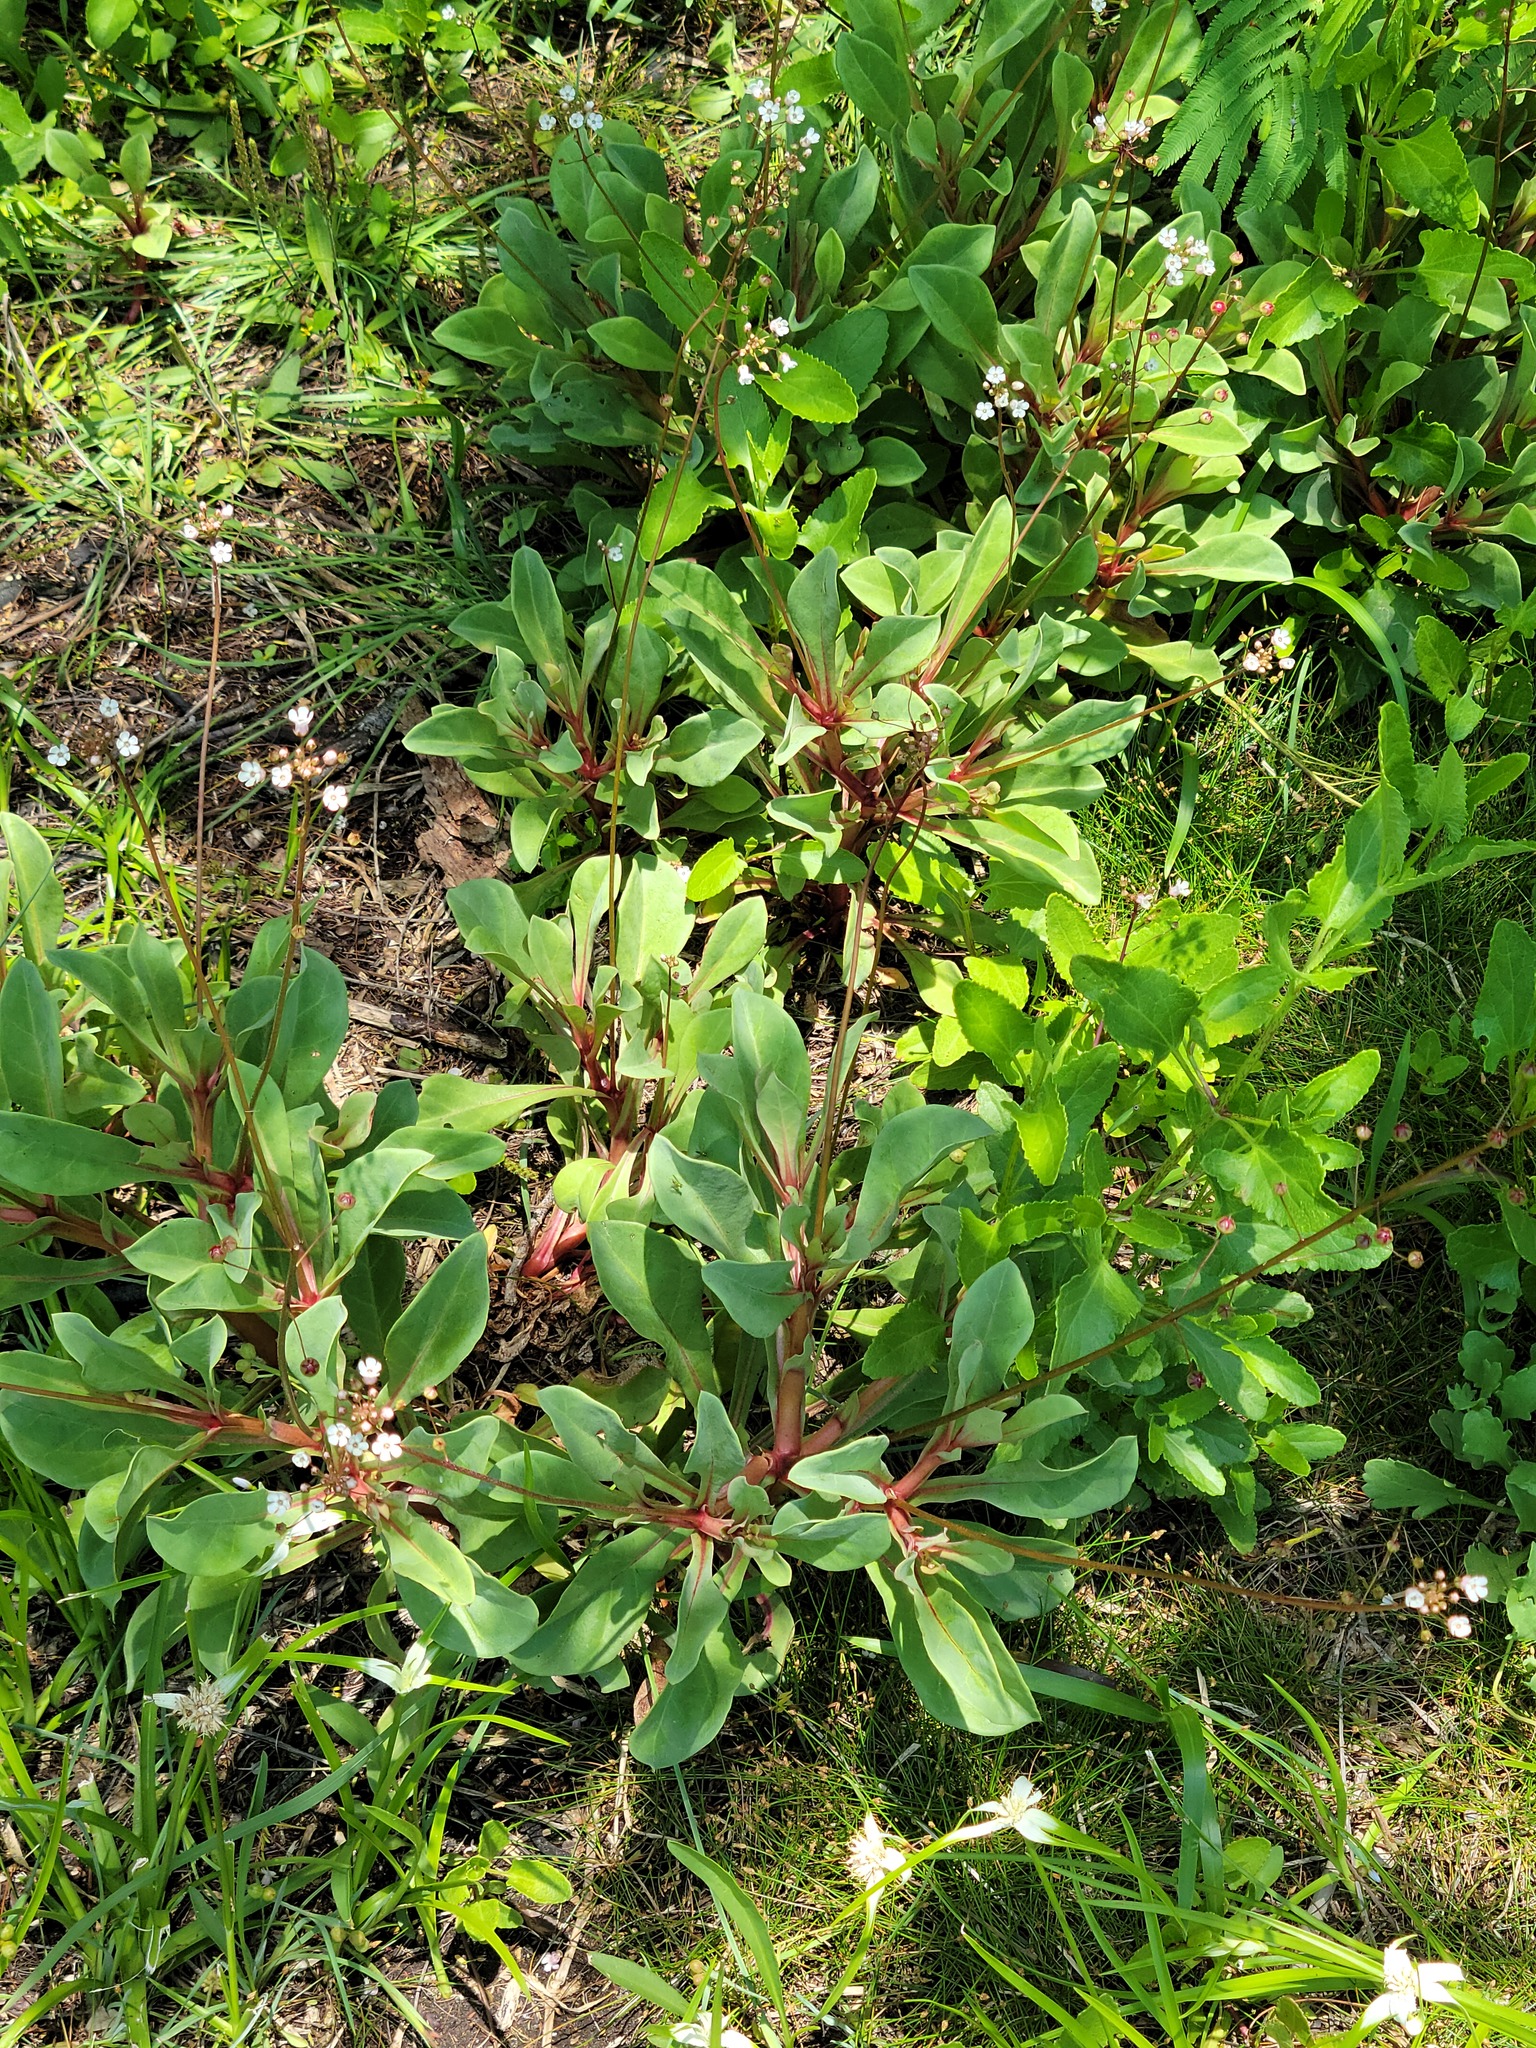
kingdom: Plantae
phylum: Tracheophyta
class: Magnoliopsida
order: Ericales
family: Primulaceae
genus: Samolus
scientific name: Samolus ebracteatus
